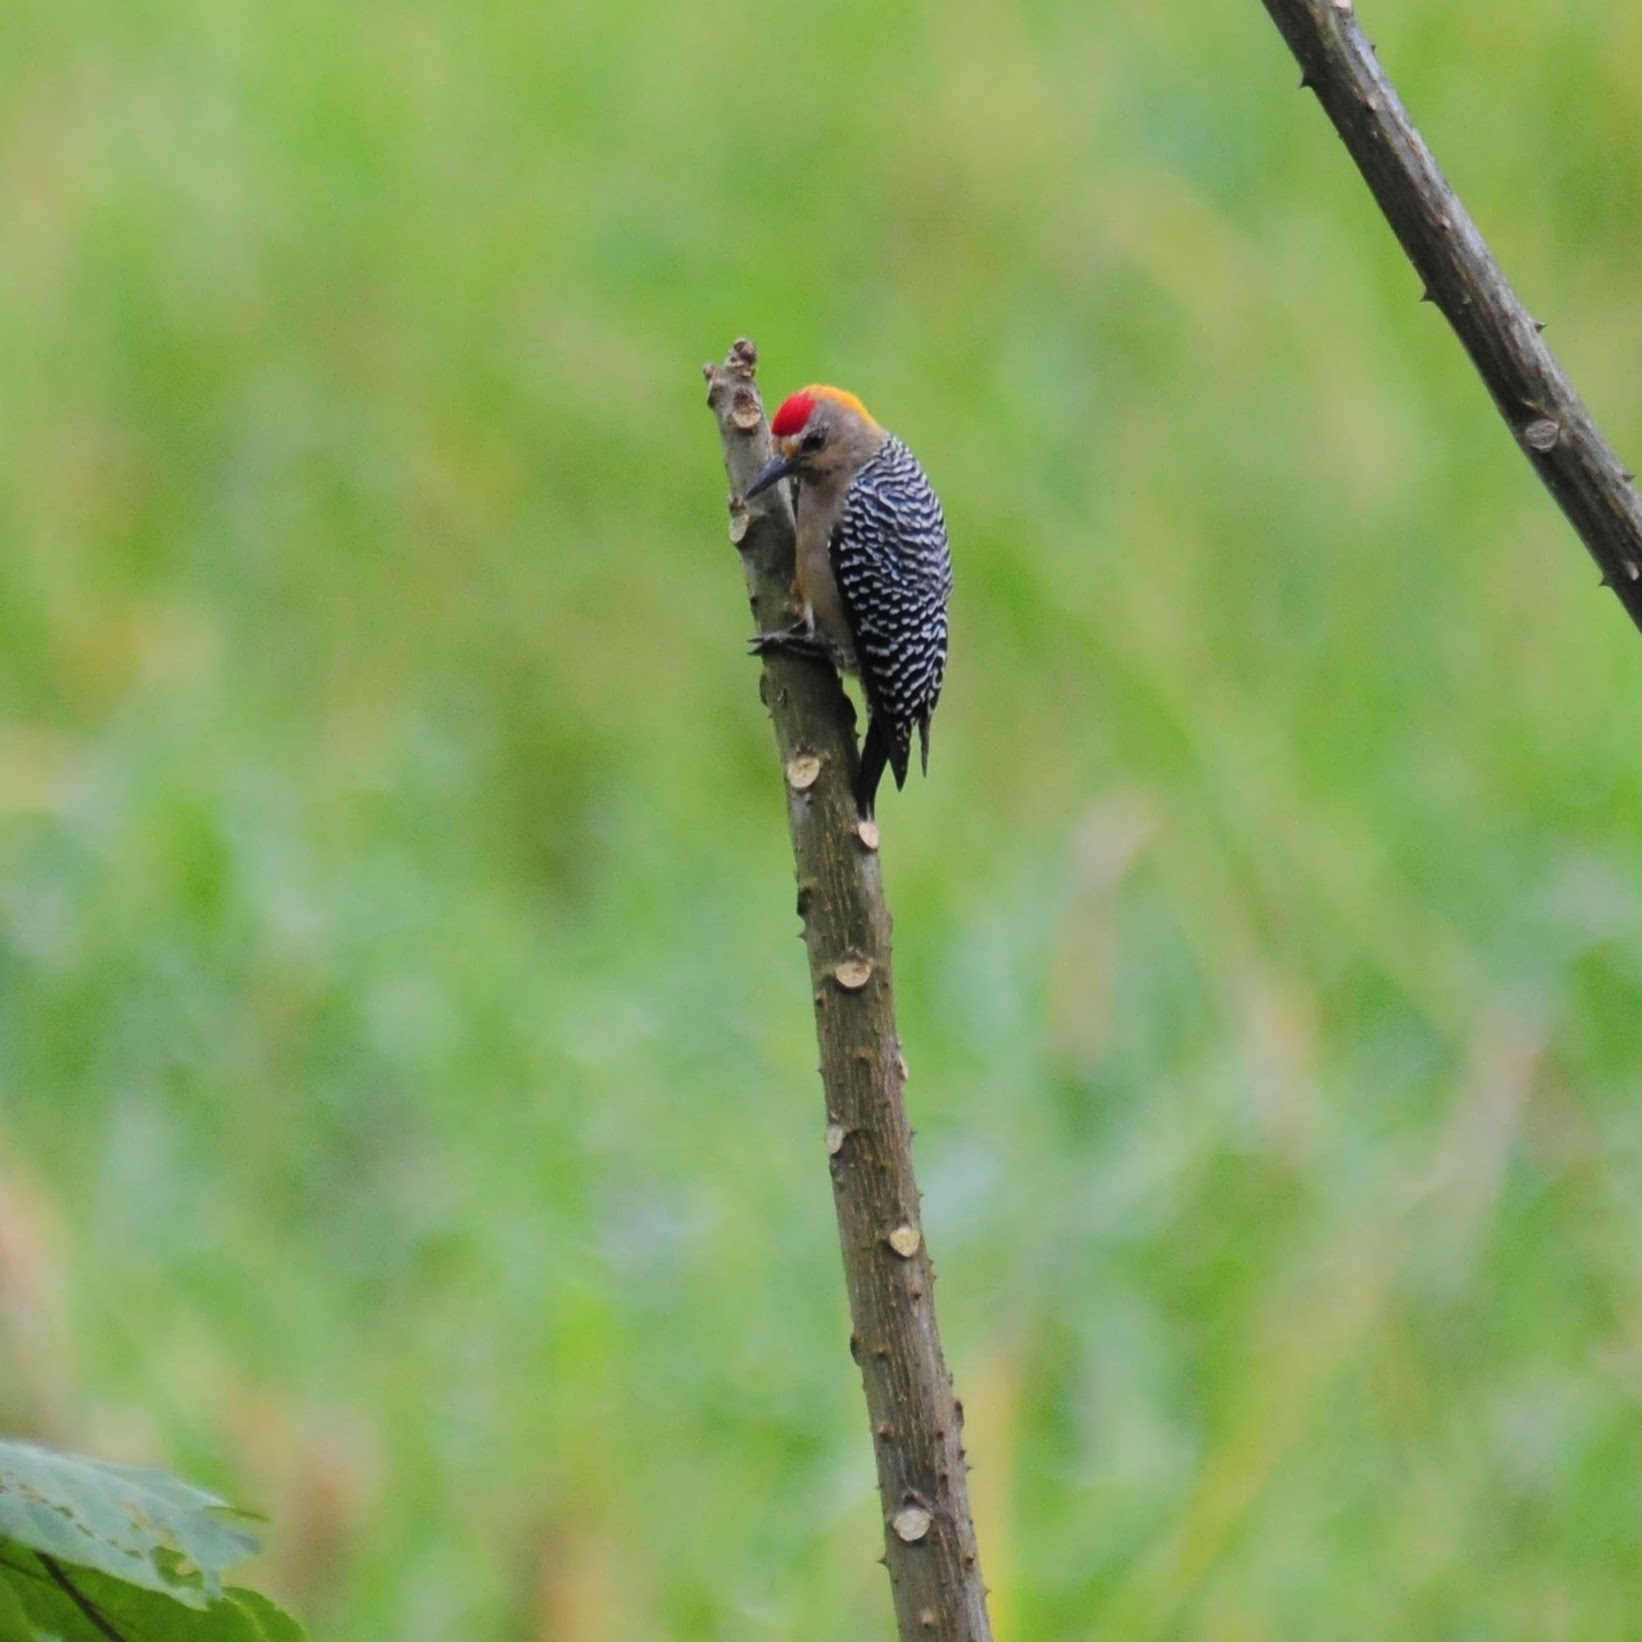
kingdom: Animalia
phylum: Chordata
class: Aves
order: Piciformes
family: Picidae
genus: Melanerpes
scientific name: Melanerpes hoffmannii
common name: Hoffmann's woodpecker
